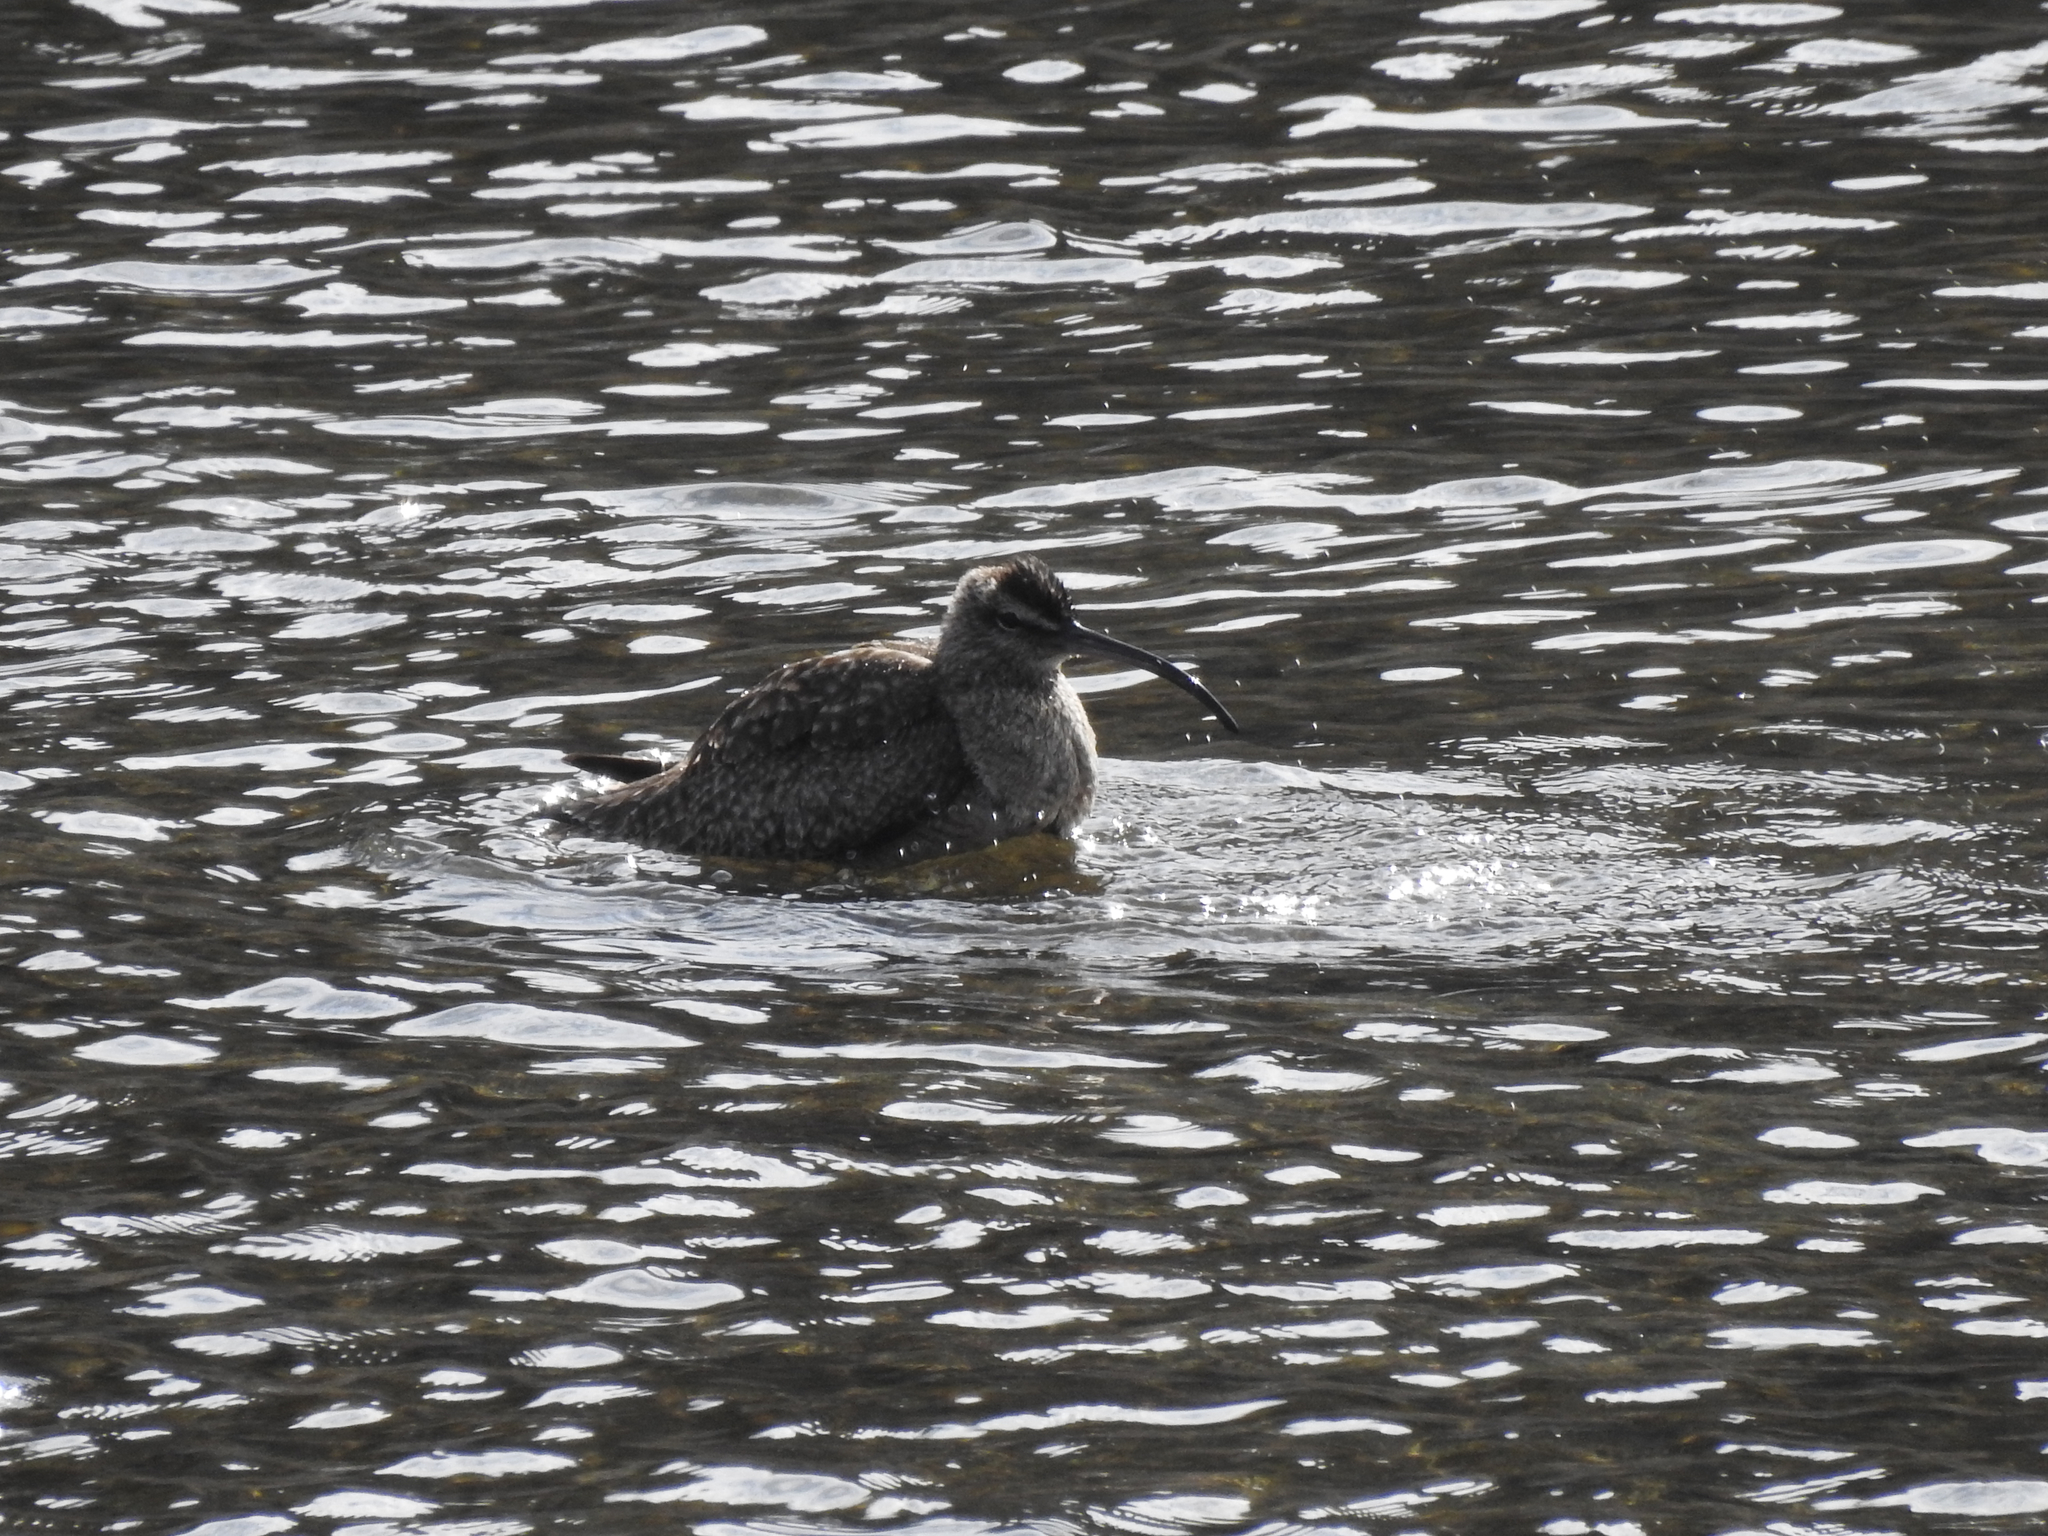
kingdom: Animalia
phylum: Chordata
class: Aves
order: Charadriiformes
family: Scolopacidae
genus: Numenius
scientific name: Numenius phaeopus
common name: Whimbrel
